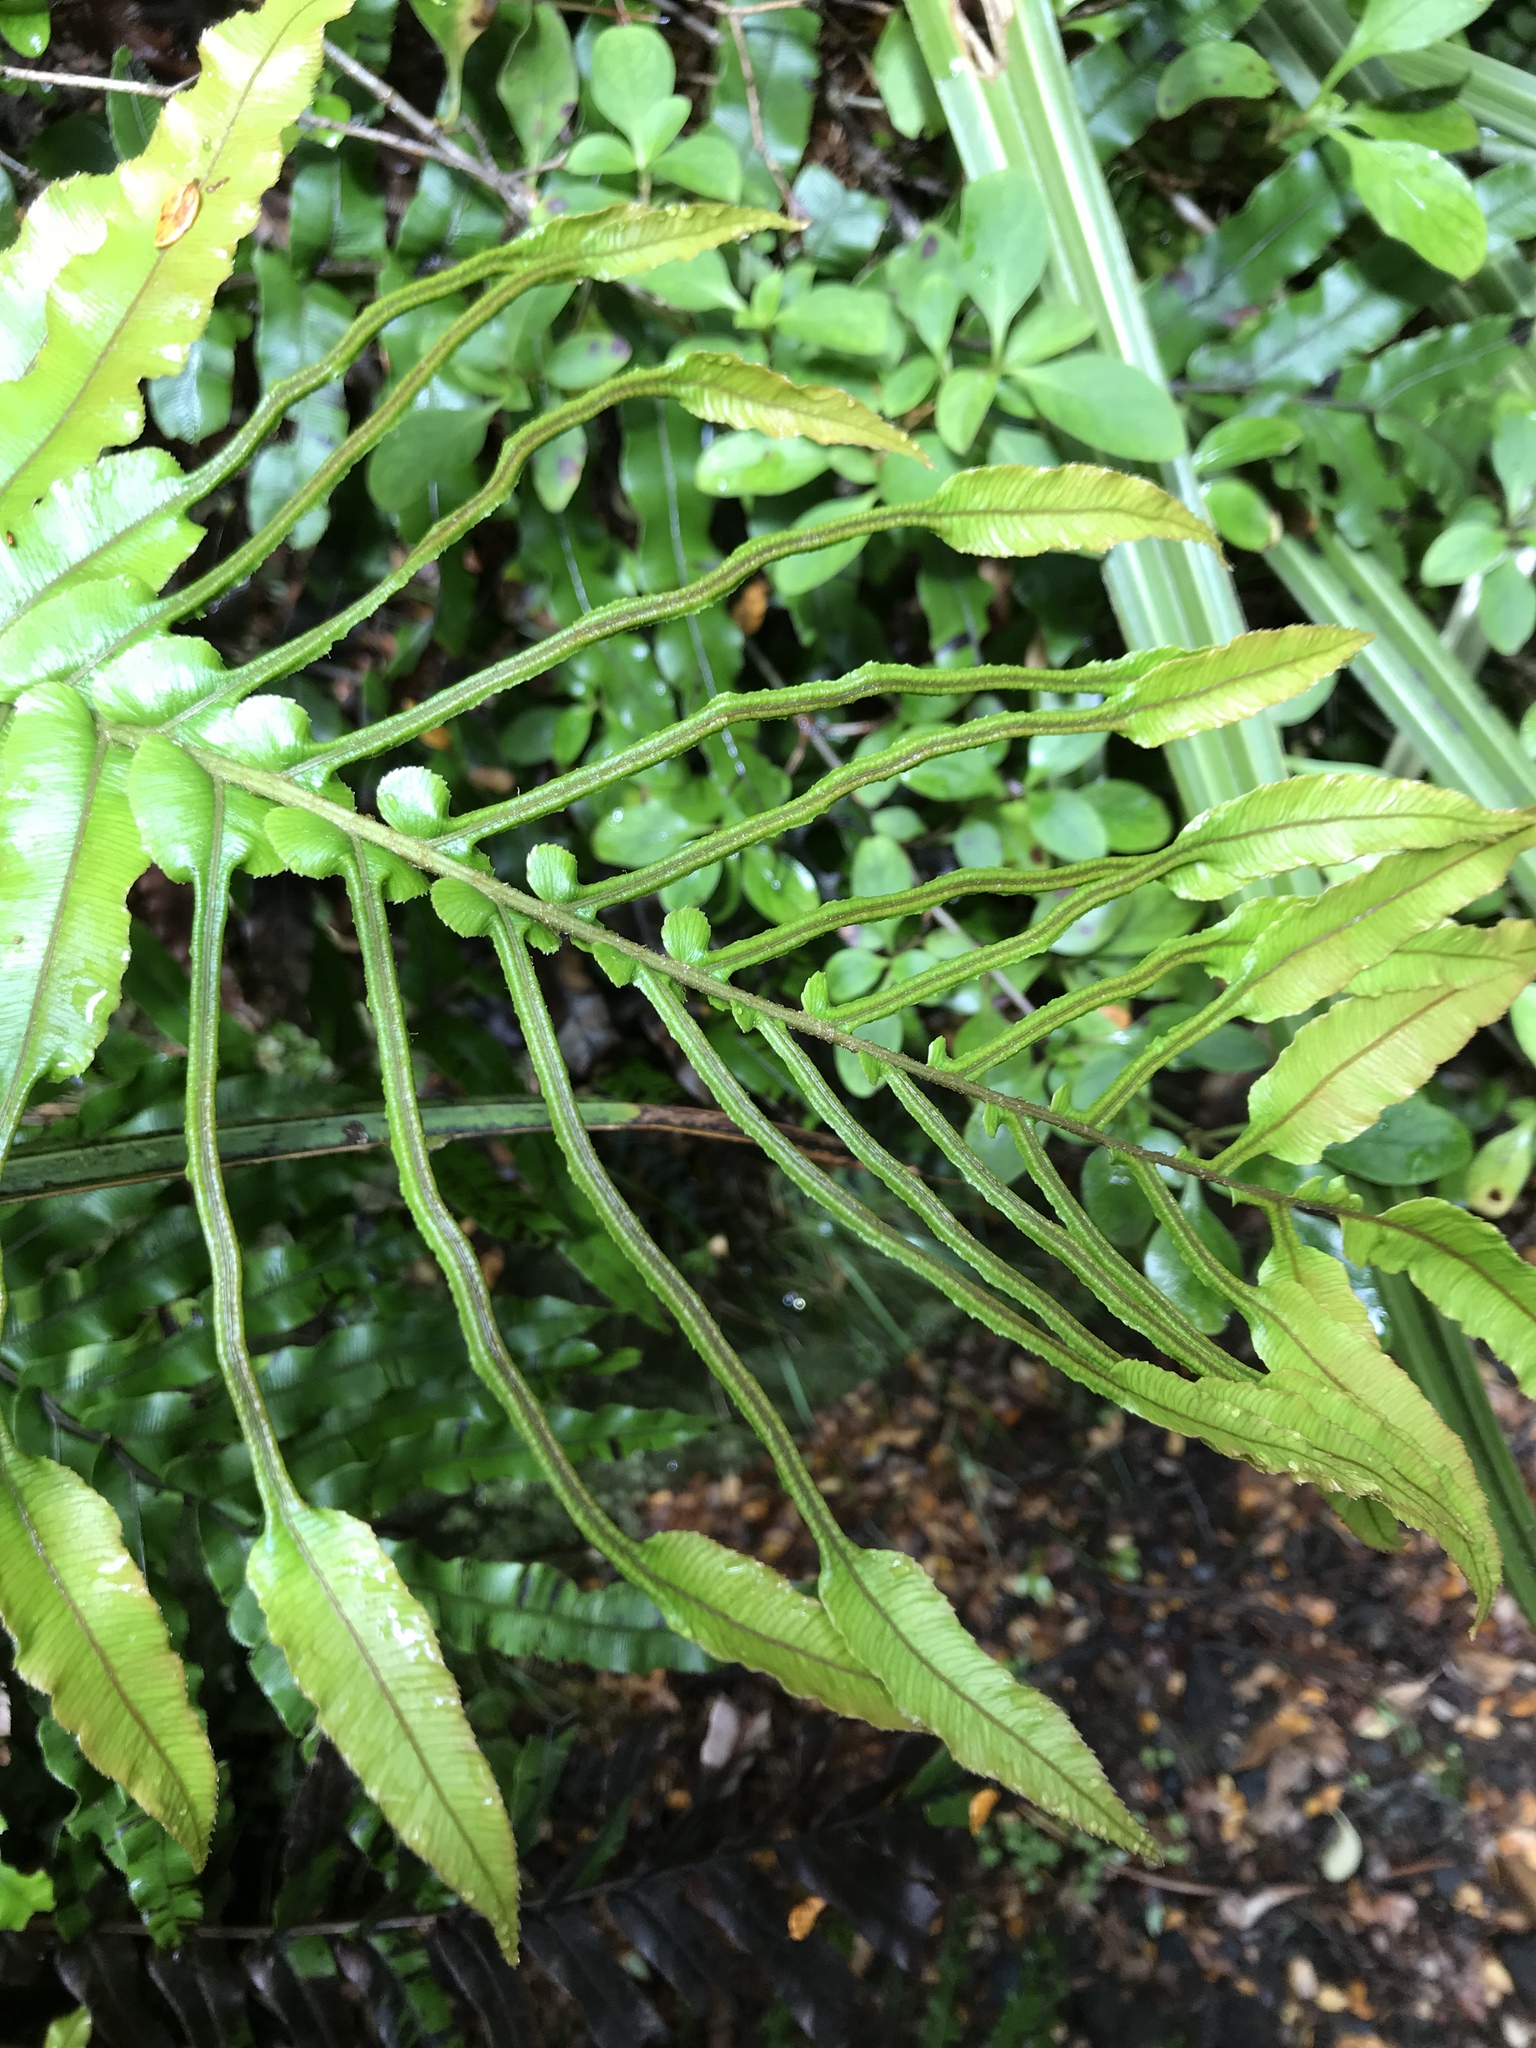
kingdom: Plantae
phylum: Tracheophyta
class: Polypodiopsida
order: Polypodiales
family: Blechnaceae
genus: Parablechnum
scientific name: Parablechnum novae-zelandiae
